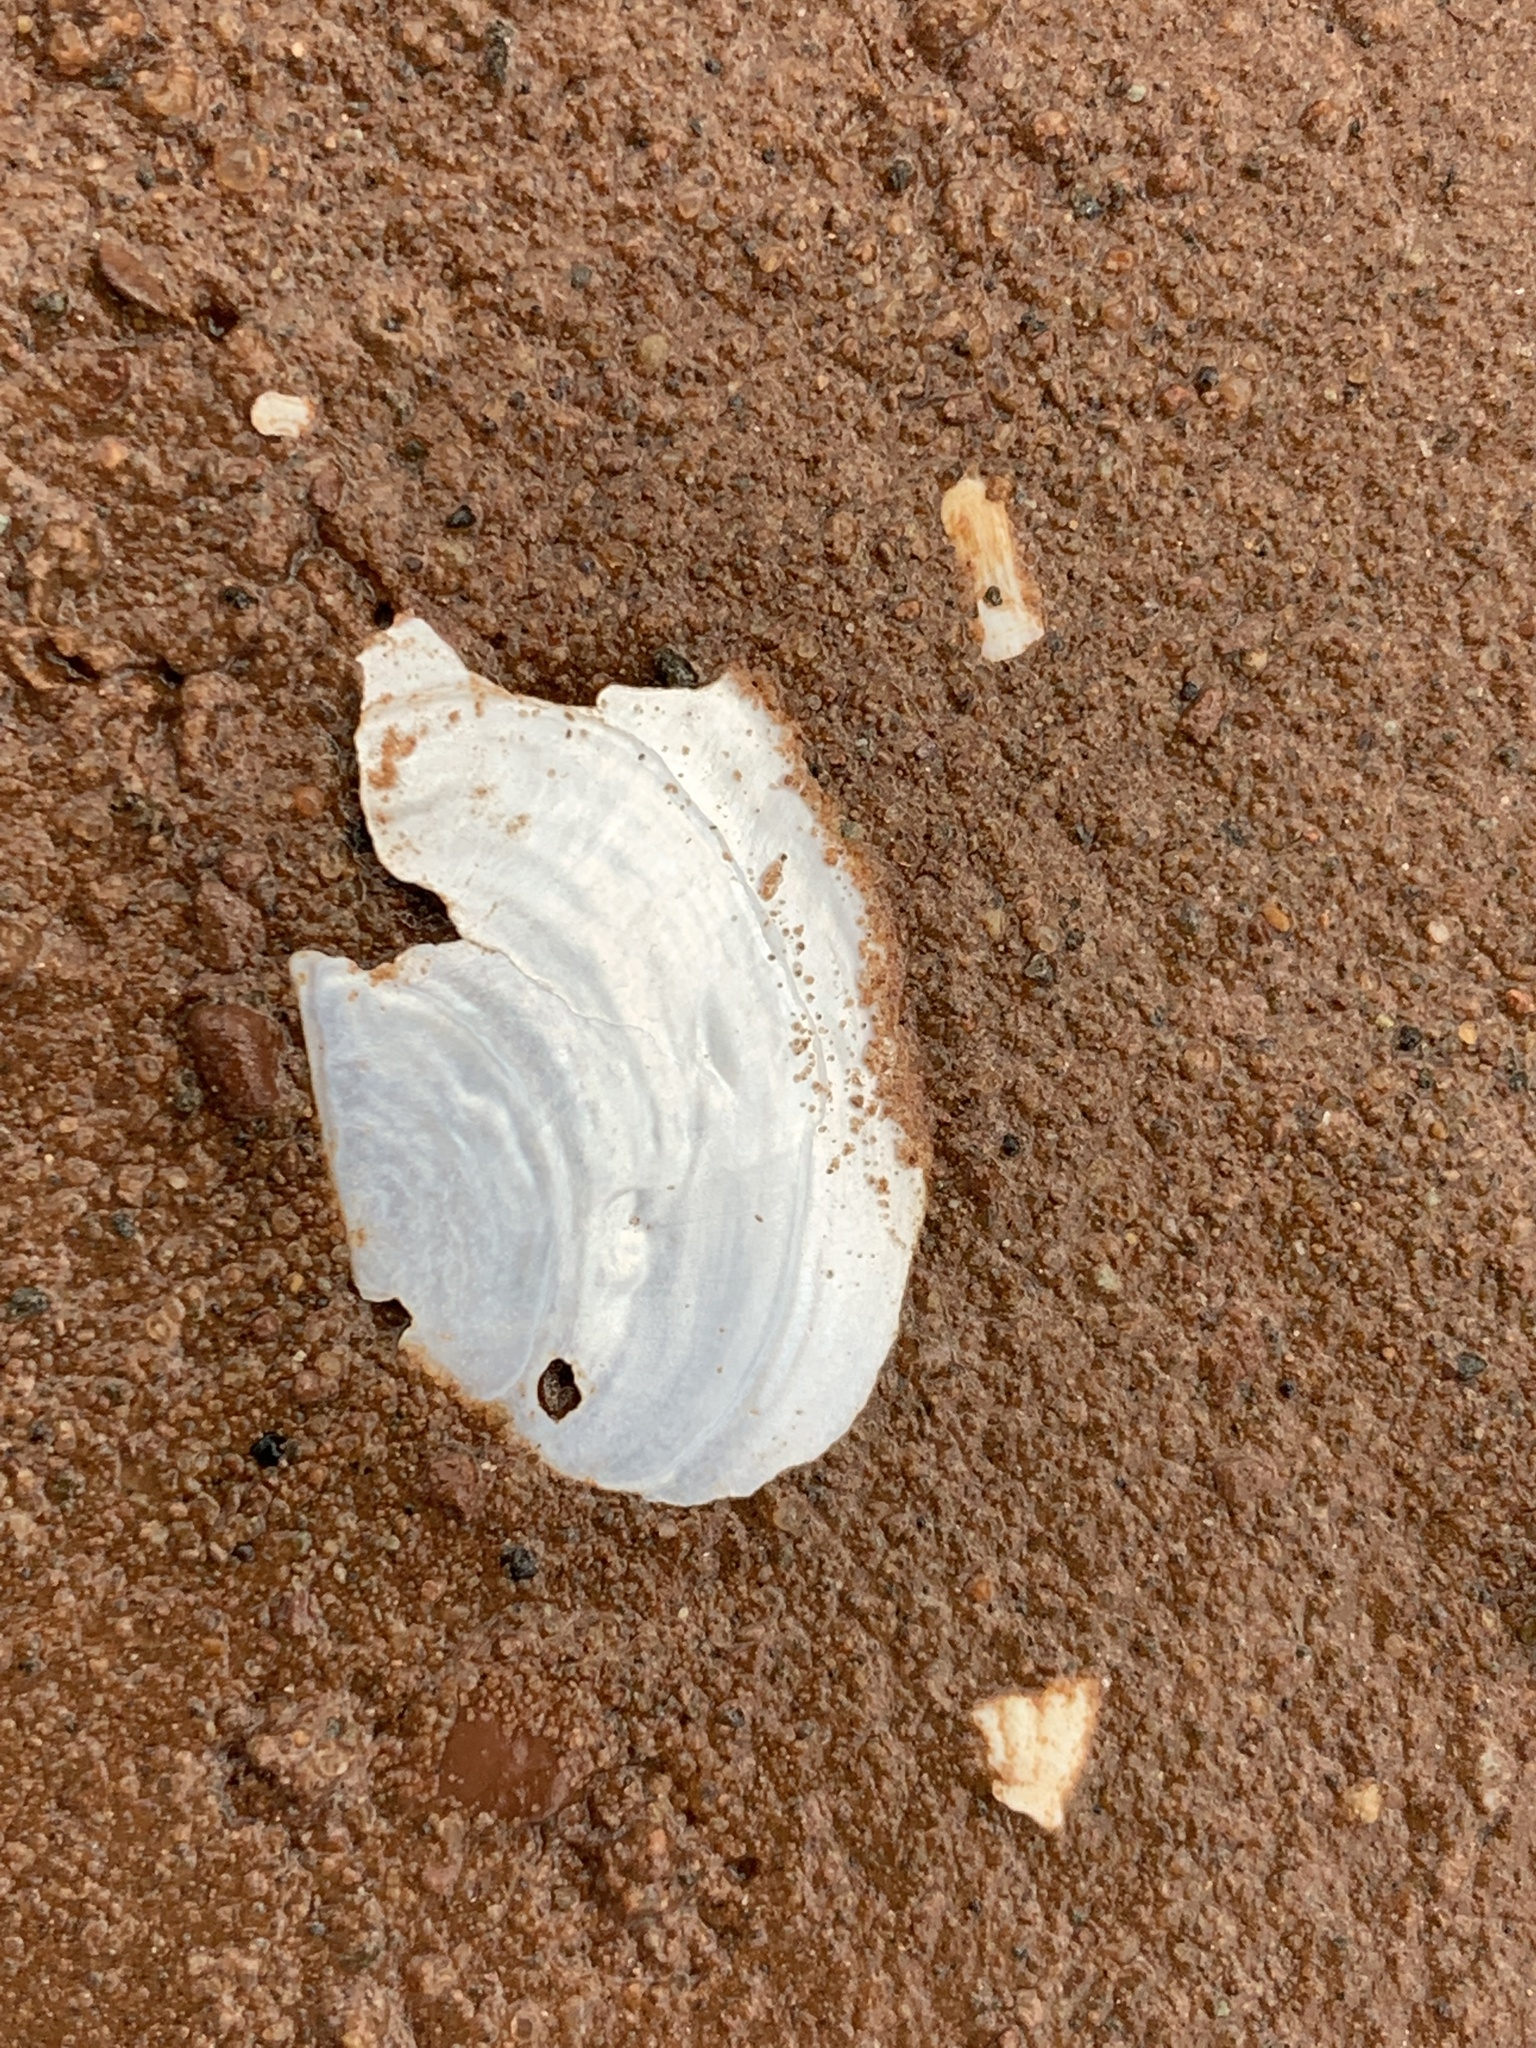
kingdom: Animalia
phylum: Mollusca
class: Bivalvia
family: Pandoridae
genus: Pandora
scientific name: Pandora gouldiana
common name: Rounded pandora
